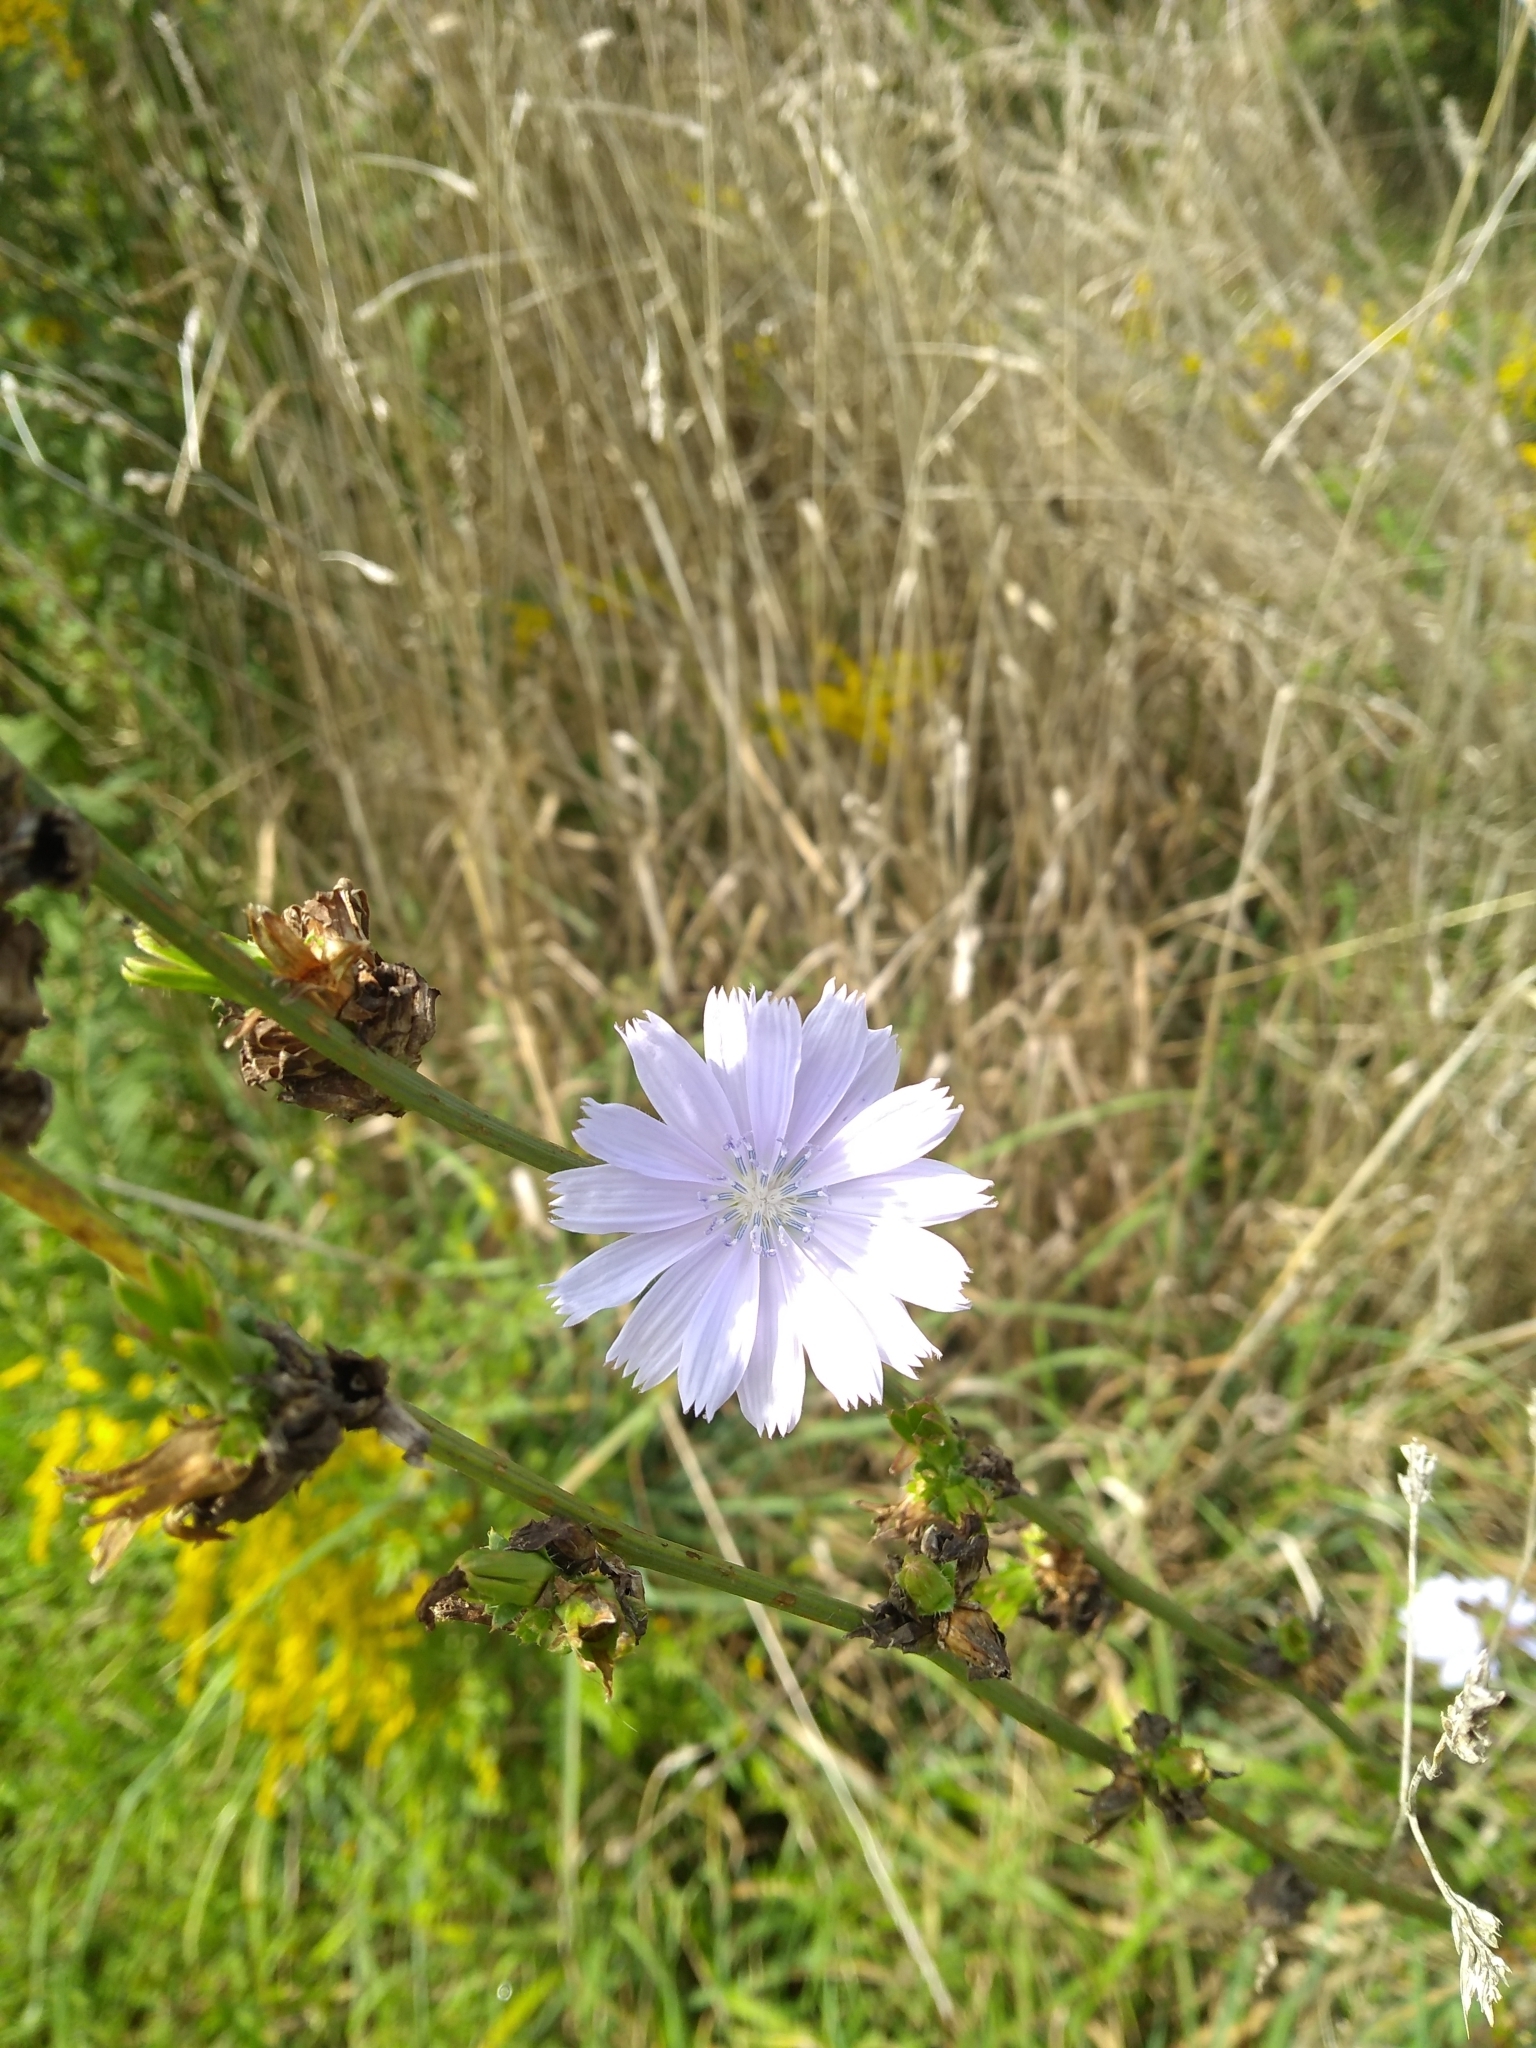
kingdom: Plantae
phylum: Tracheophyta
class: Magnoliopsida
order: Asterales
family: Asteraceae
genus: Cichorium
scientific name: Cichorium intybus
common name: Chicory
